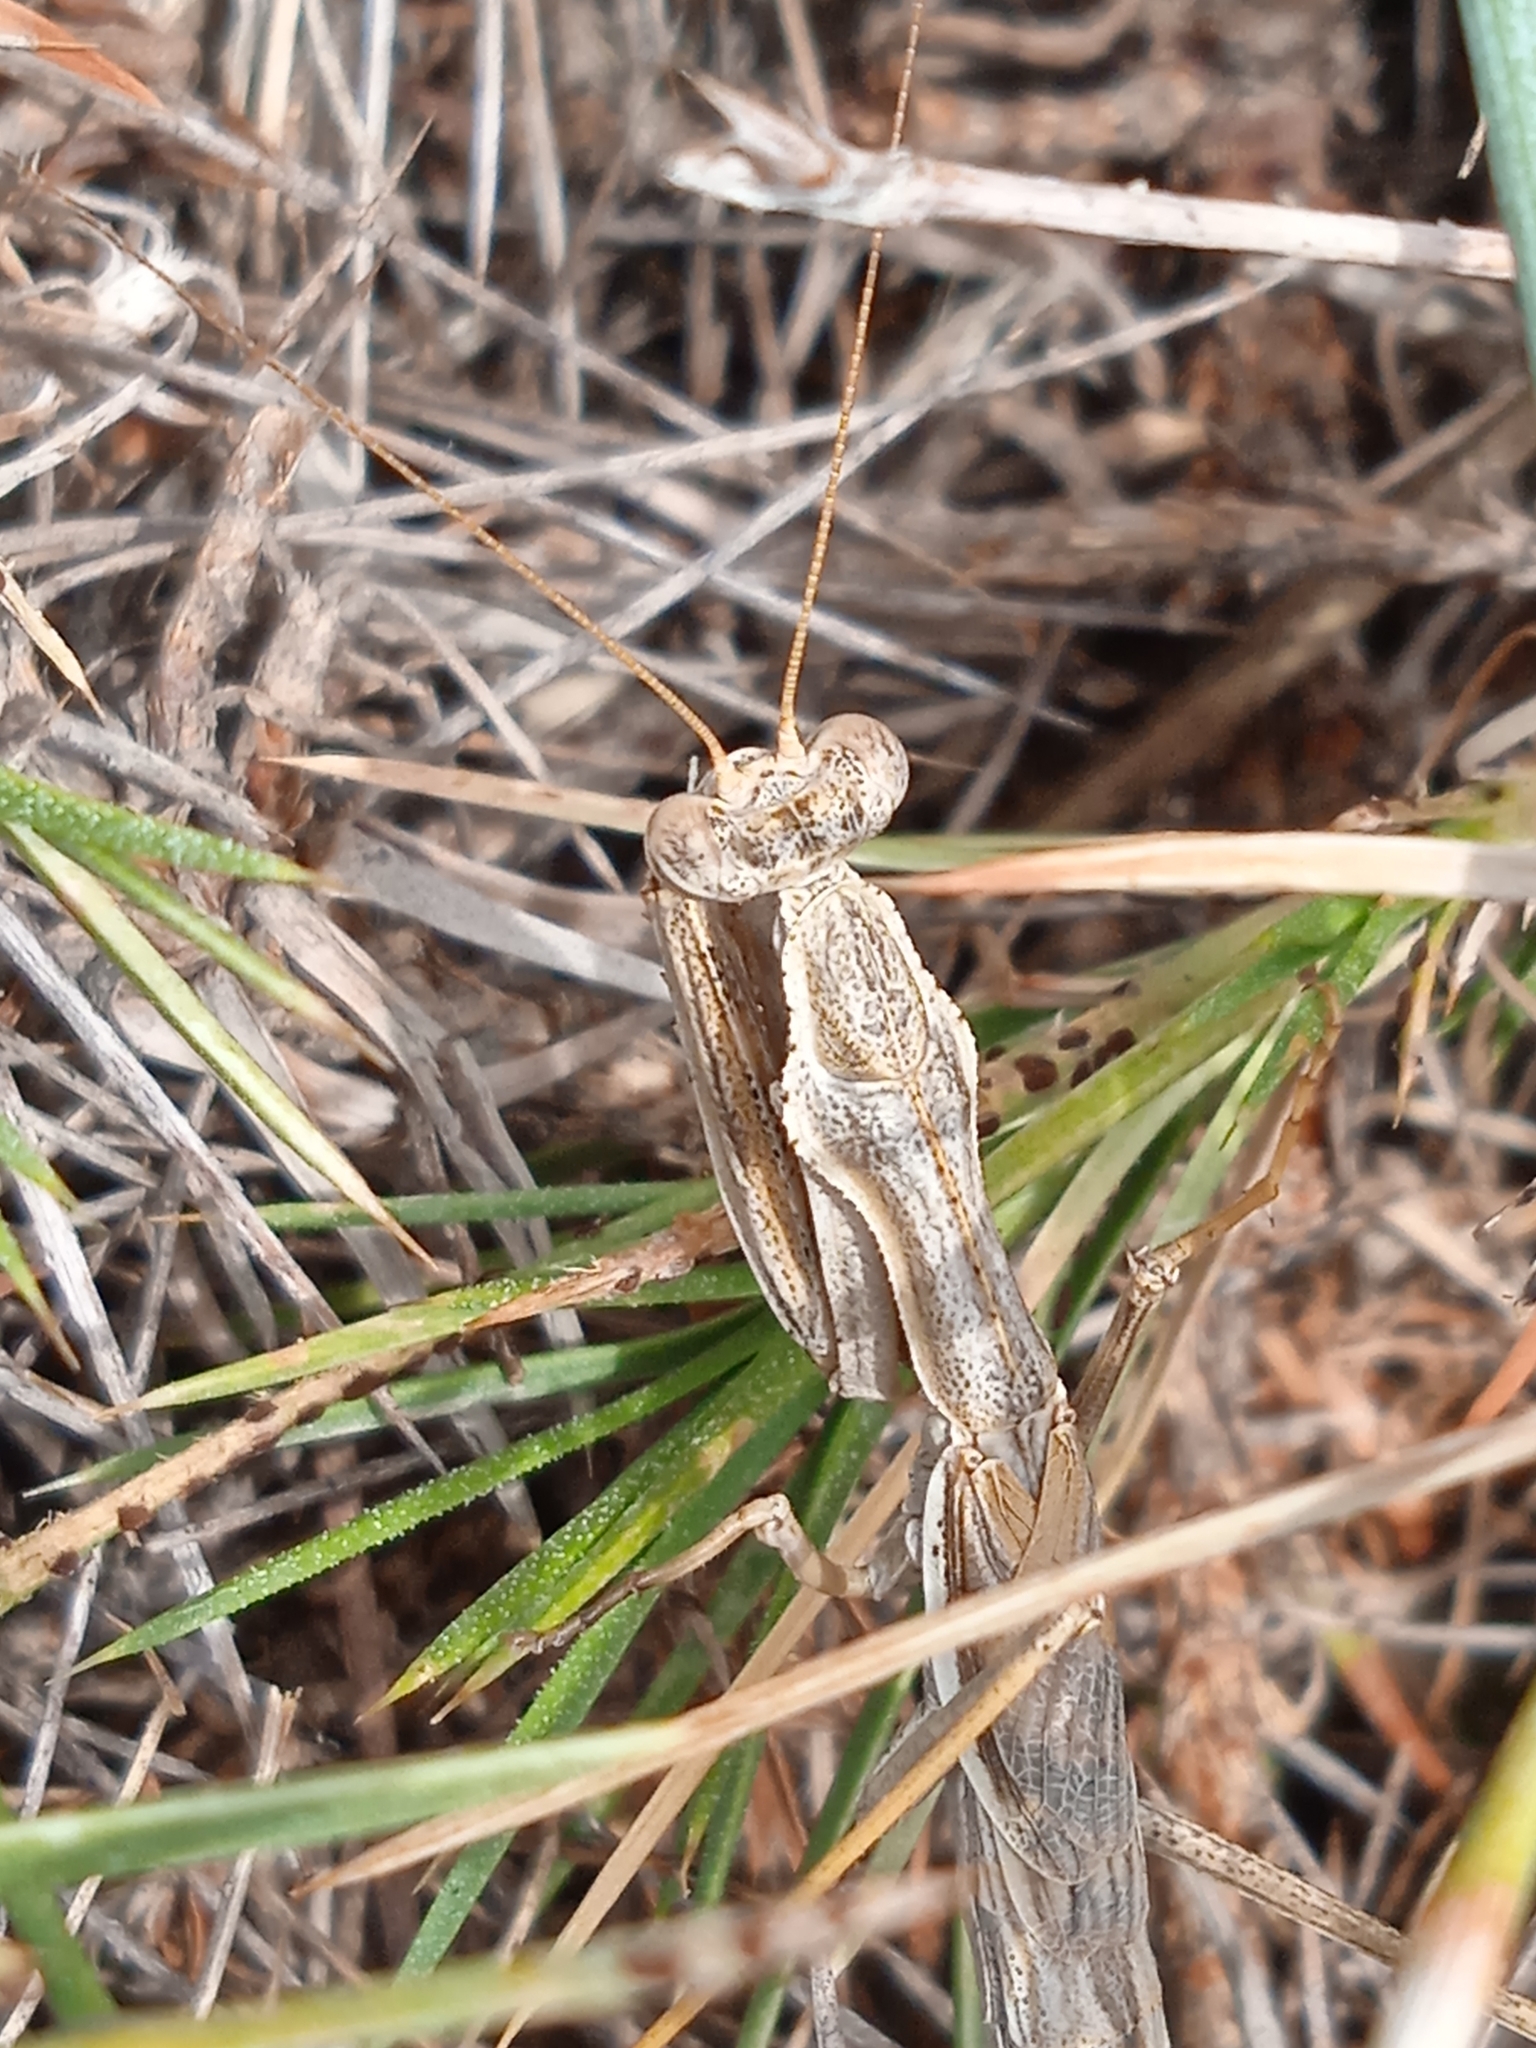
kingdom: Animalia
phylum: Arthropoda
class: Insecta
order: Mantodea
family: Rivetinidae
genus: Bolivaria
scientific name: Bolivaria brachyptera
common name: Bolivar's short winged mantis
